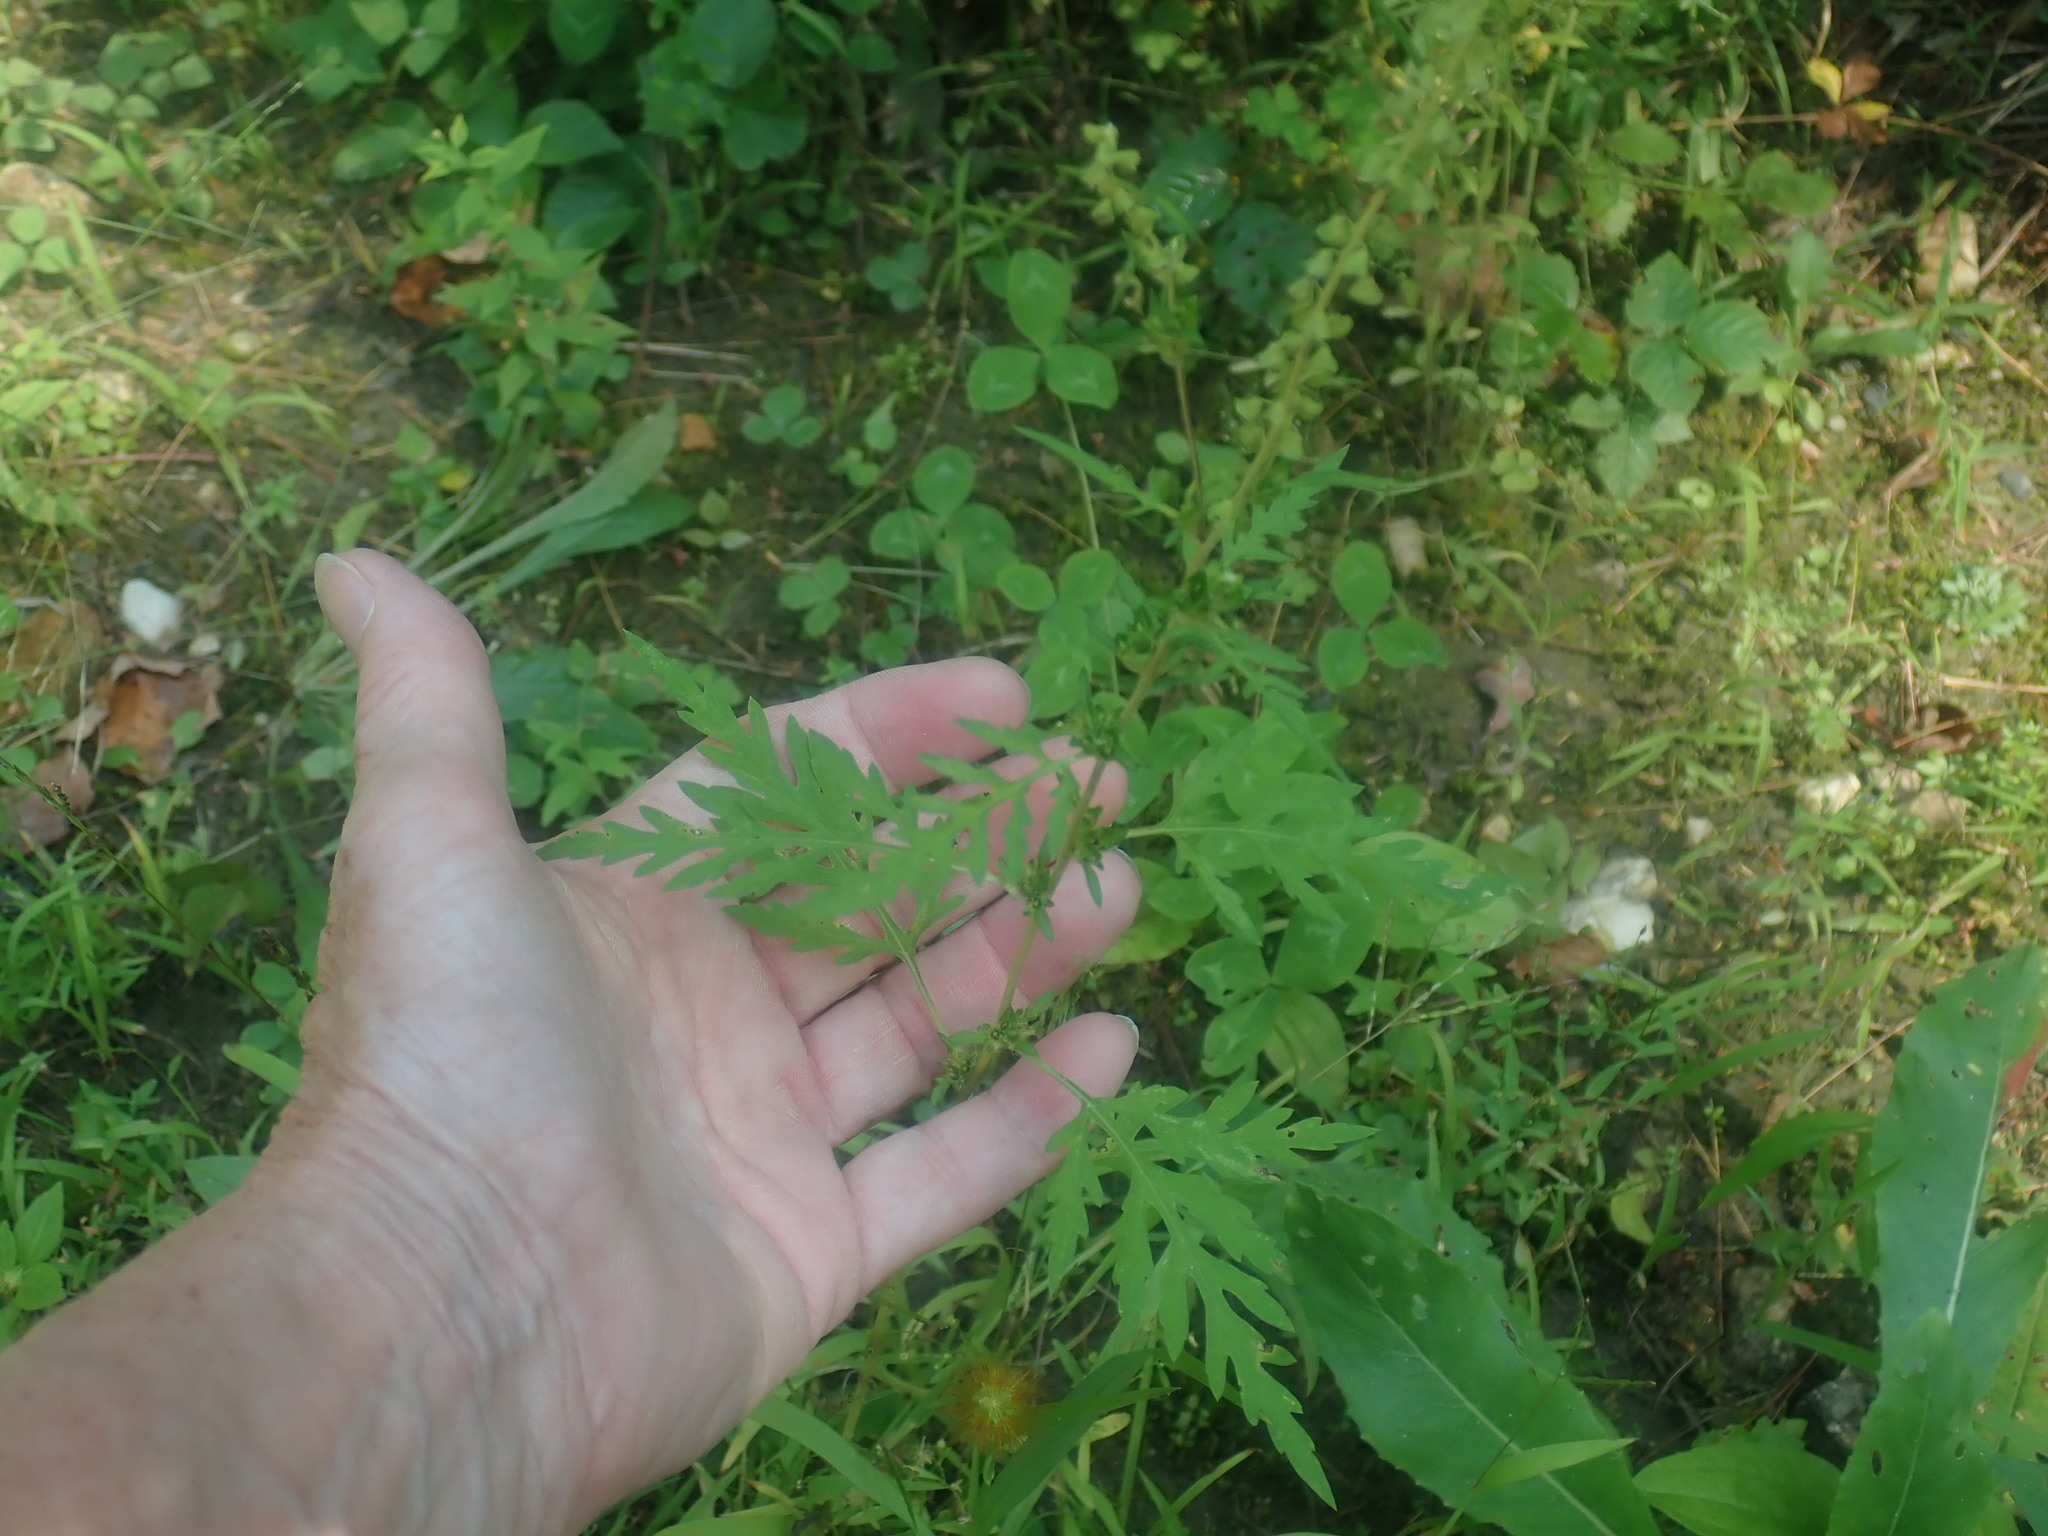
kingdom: Plantae
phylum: Tracheophyta
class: Magnoliopsida
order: Asterales
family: Asteraceae
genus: Ambrosia
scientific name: Ambrosia artemisiifolia
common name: Annual ragweed
